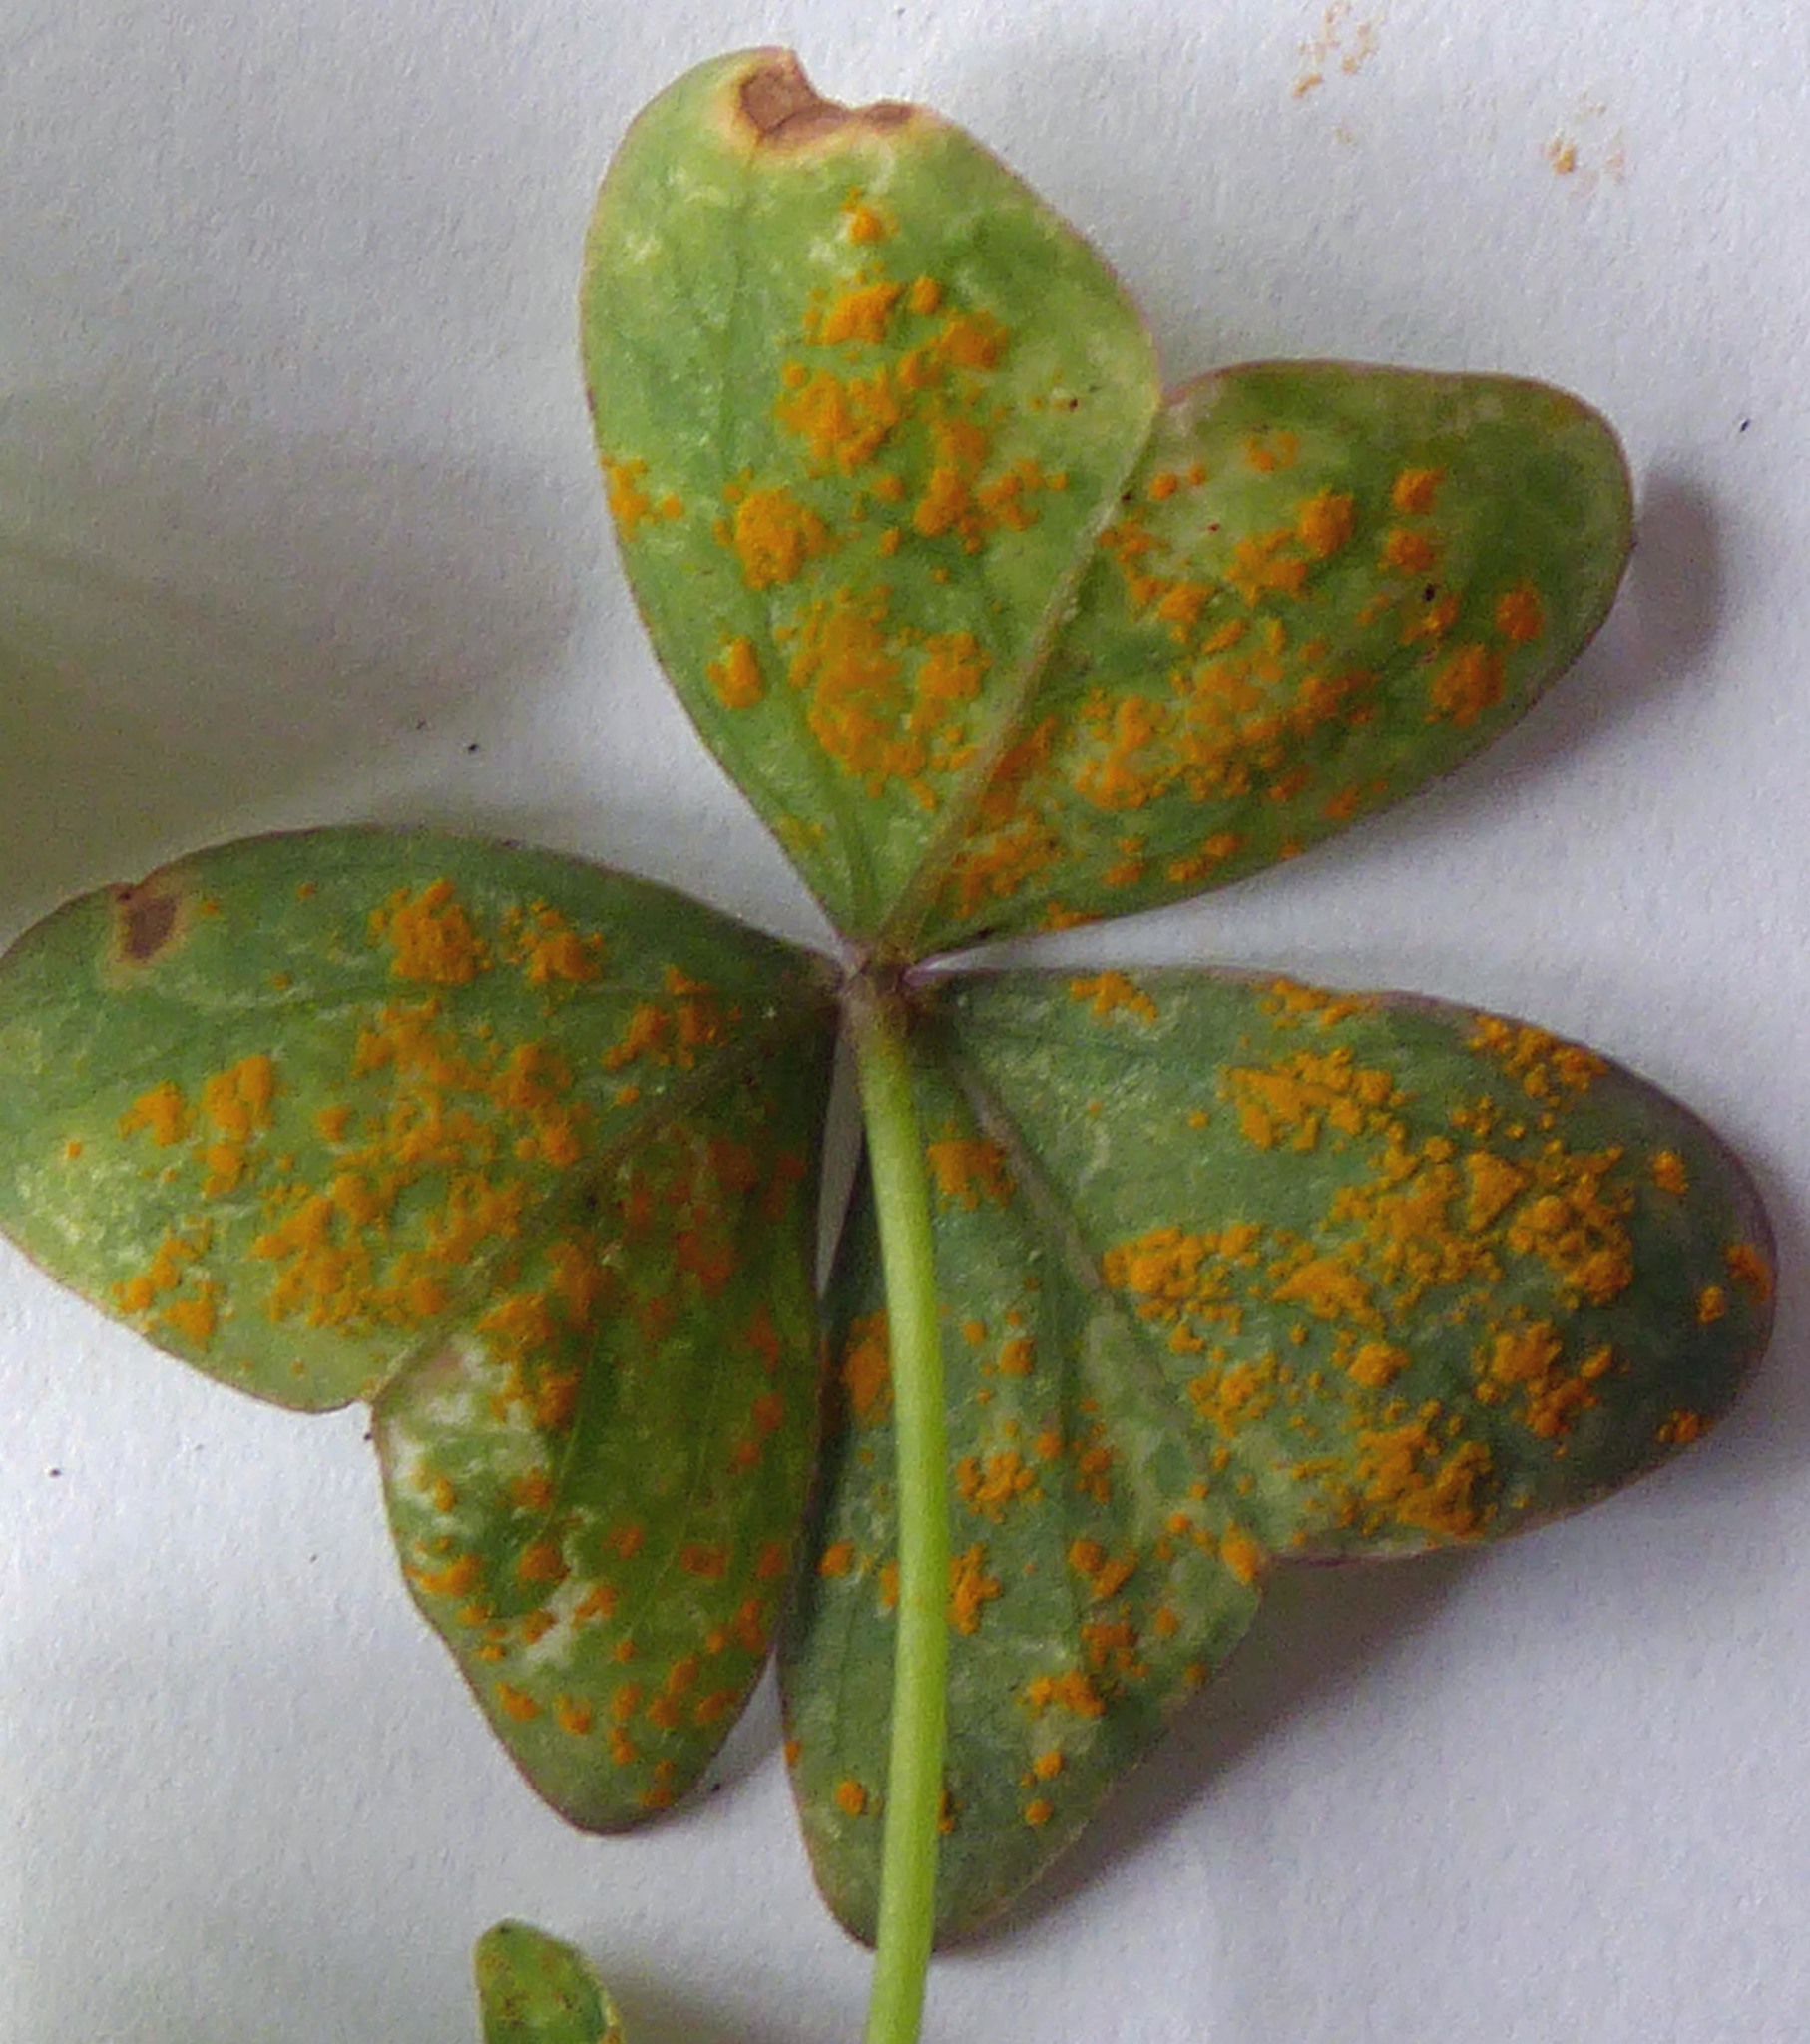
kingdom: Fungi
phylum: Basidiomycota
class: Pucciniomycetes
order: Pucciniales
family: Pucciniaceae
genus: Puccinia
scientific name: Puccinia oxalidis
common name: Oxalis rust
